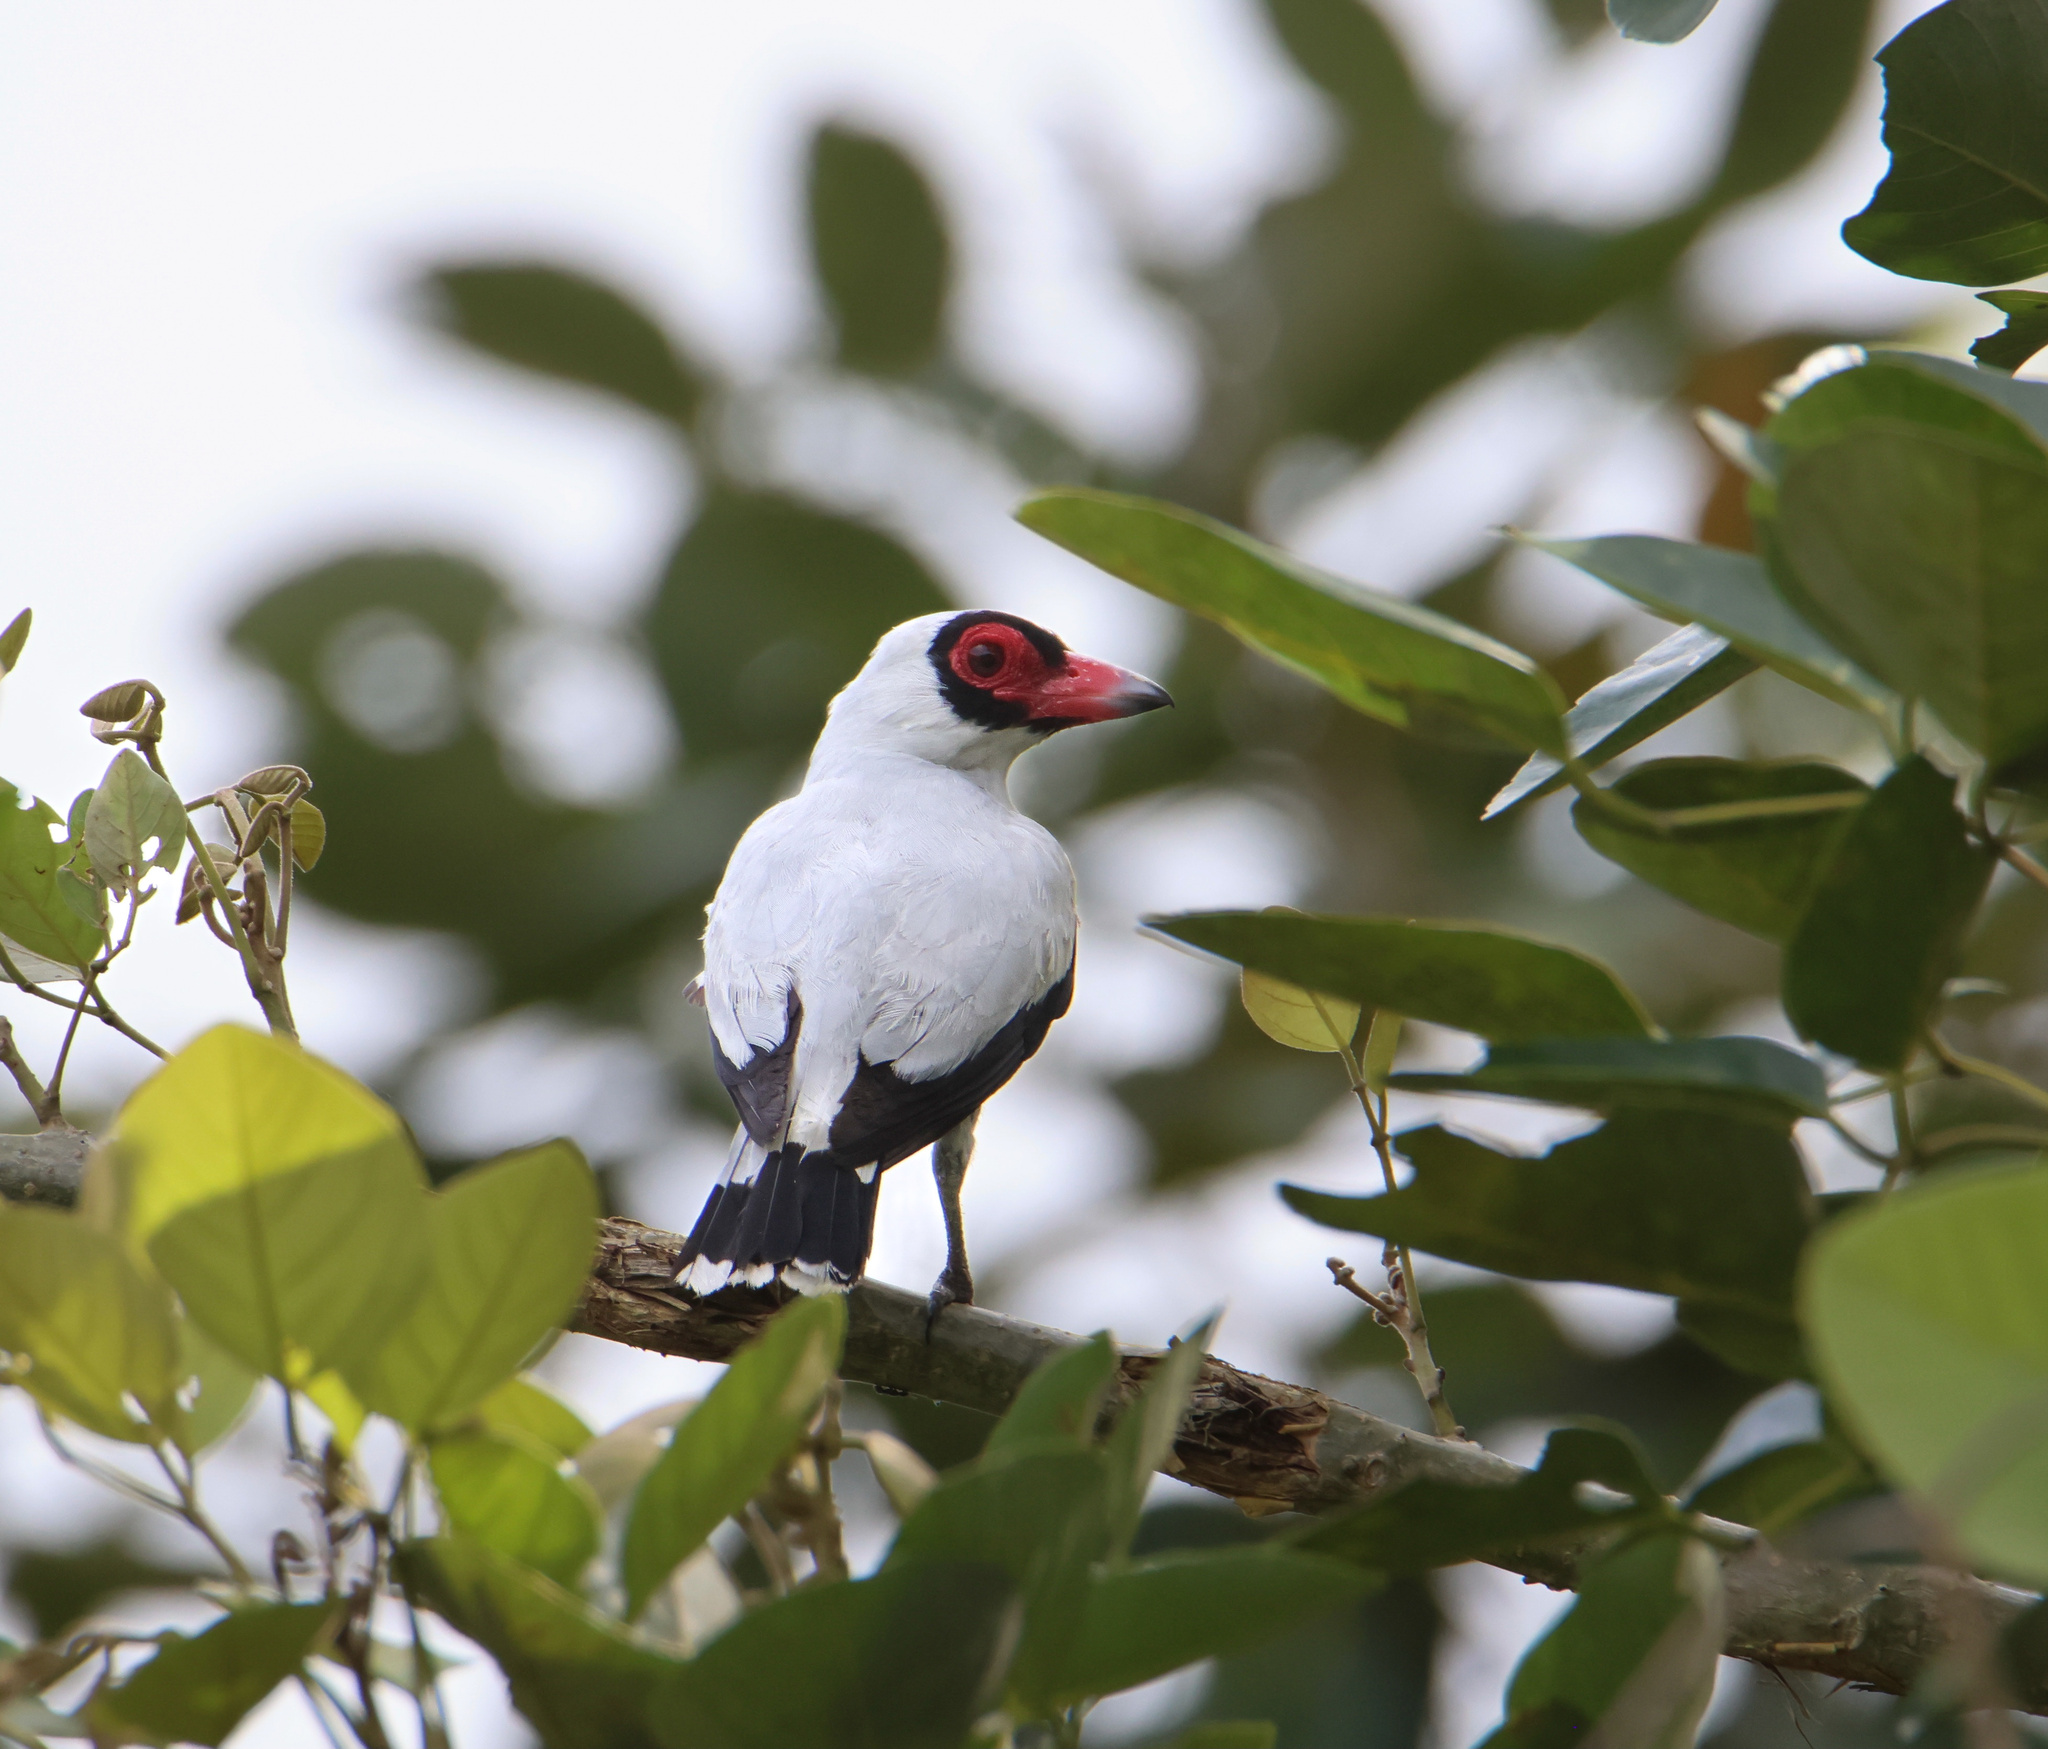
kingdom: Animalia
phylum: Chordata
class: Aves
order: Passeriformes
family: Cotingidae
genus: Tityra
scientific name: Tityra semifasciata
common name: Masked tityra
